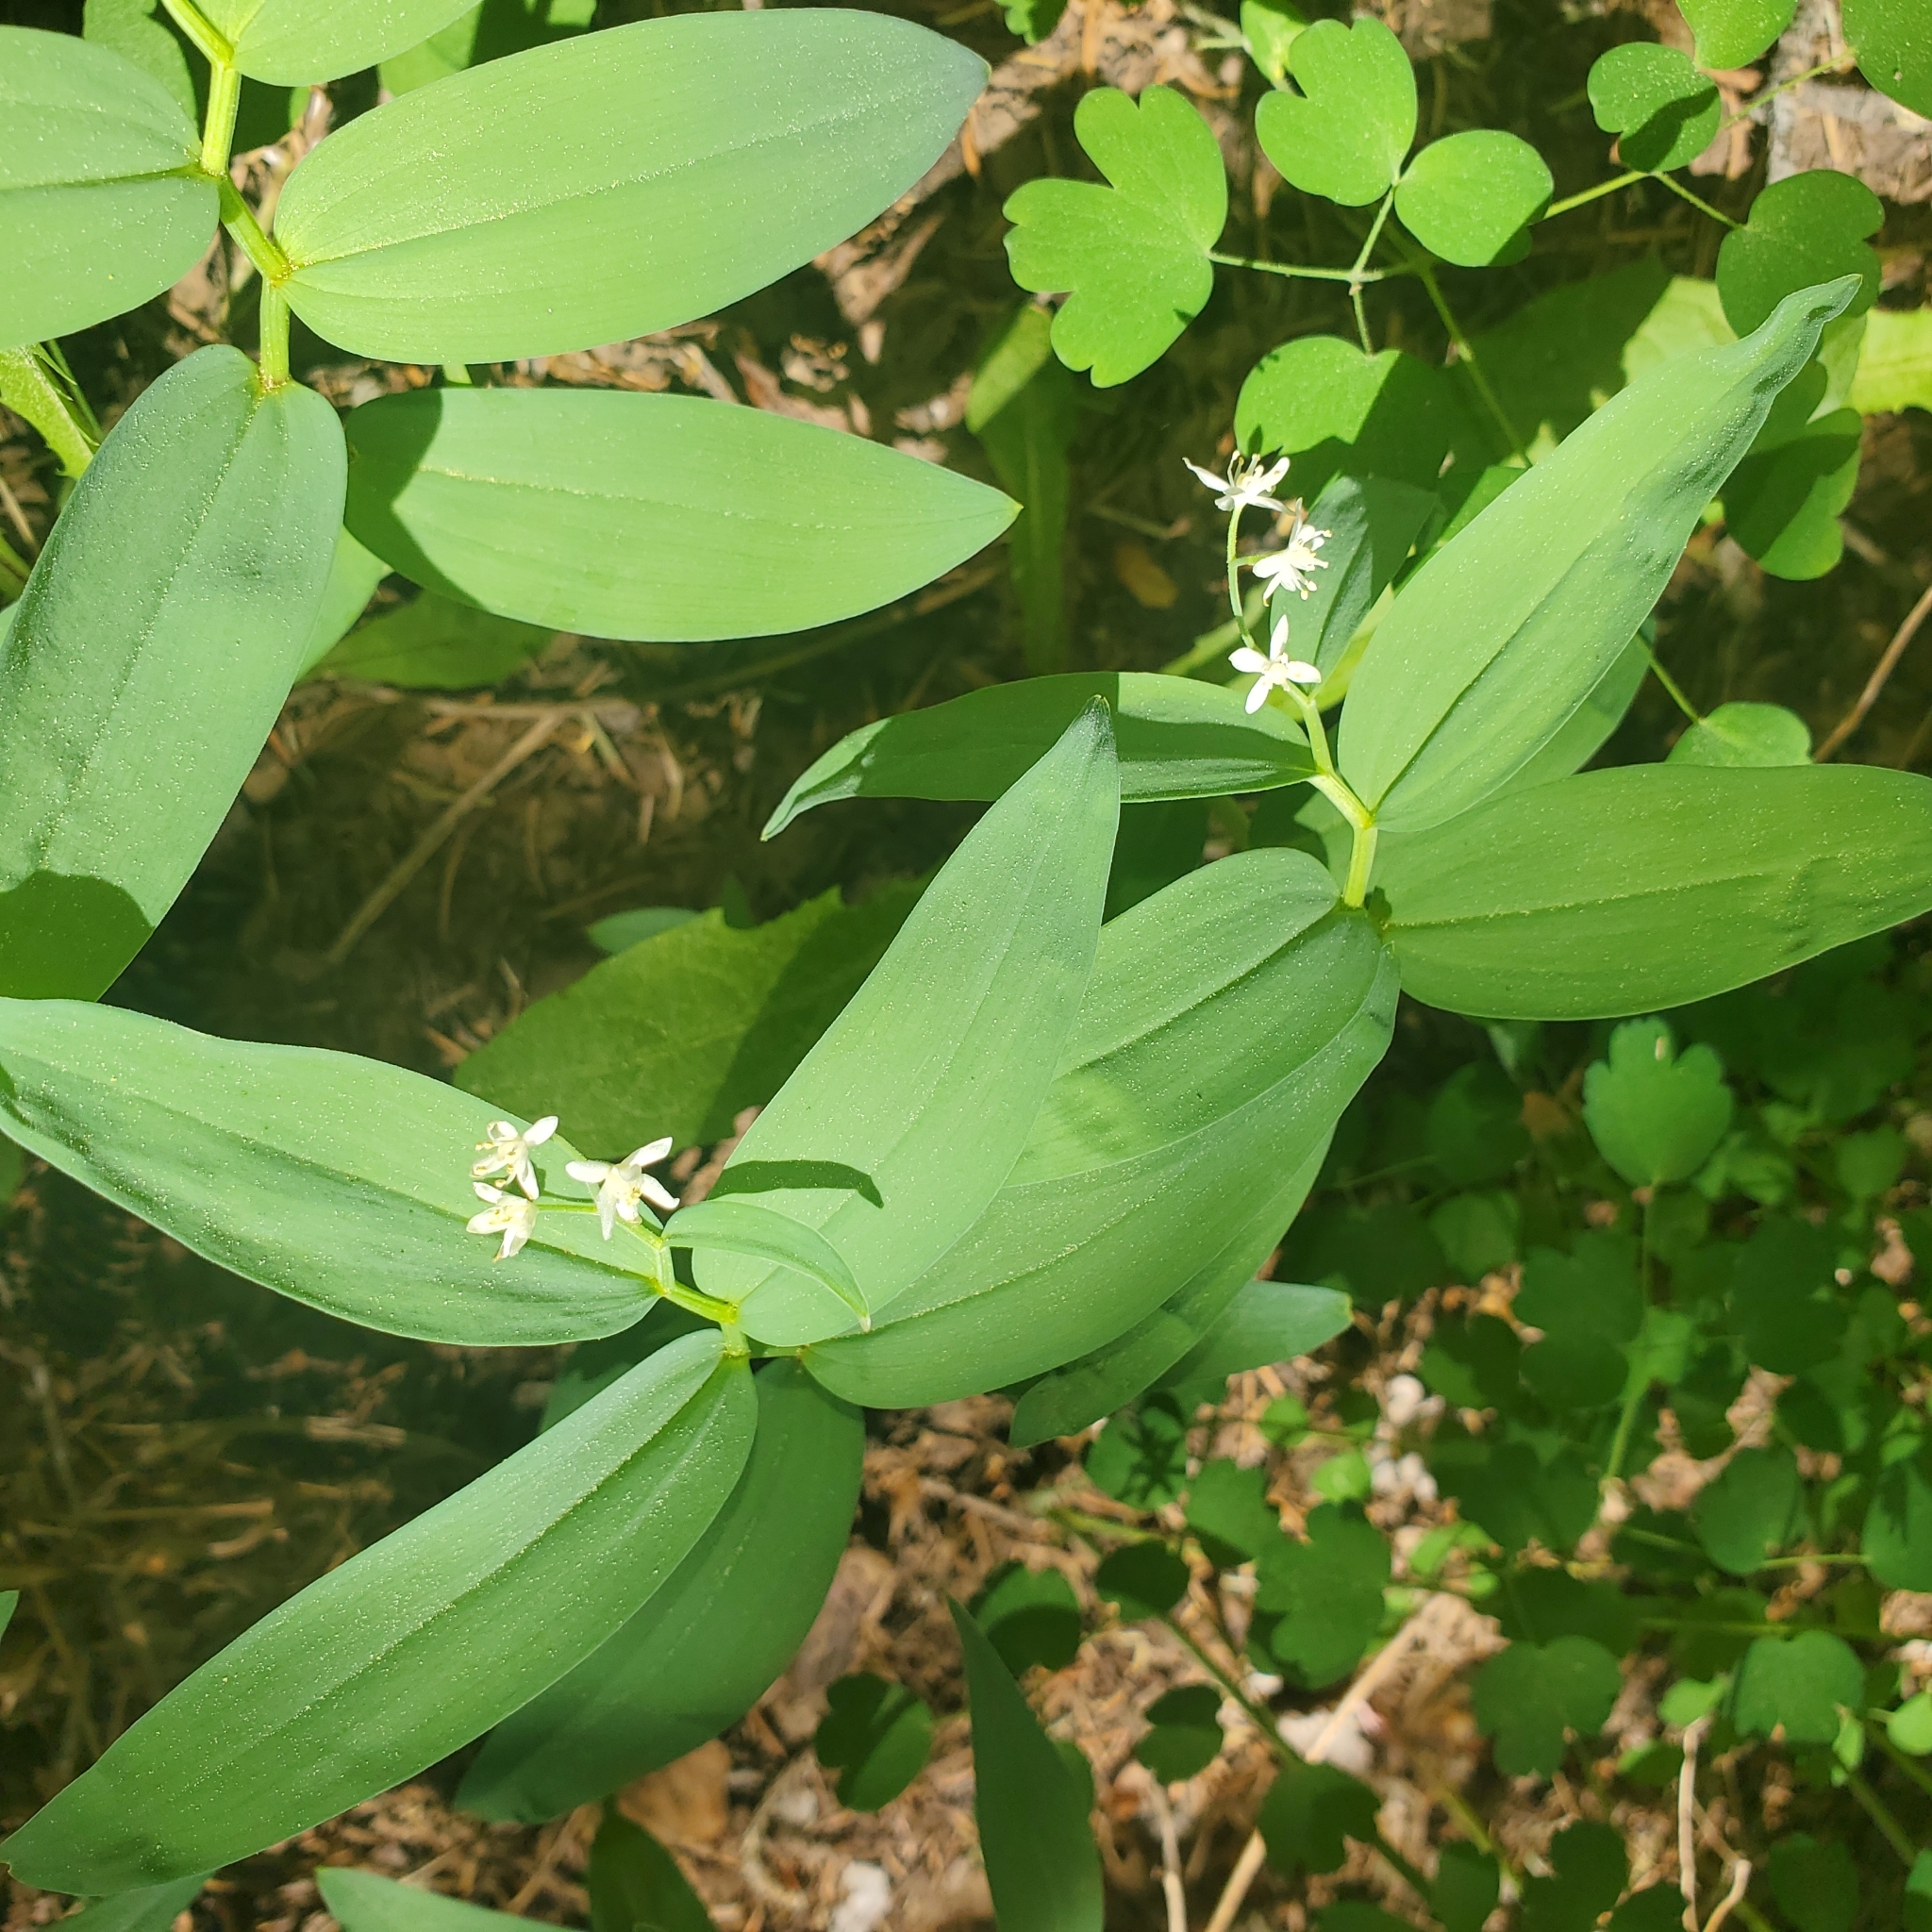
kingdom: Plantae
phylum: Tracheophyta
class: Liliopsida
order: Asparagales
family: Asparagaceae
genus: Maianthemum
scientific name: Maianthemum stellatum
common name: Little false solomon's seal
